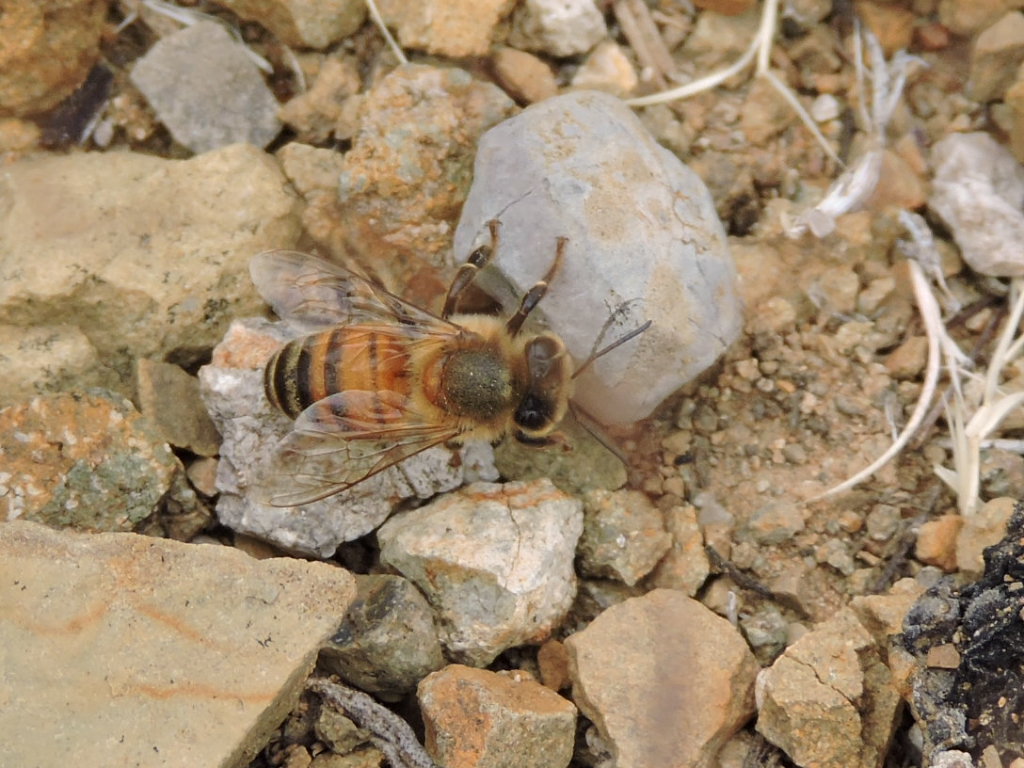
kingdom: Animalia
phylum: Arthropoda
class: Insecta
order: Hymenoptera
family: Apidae
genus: Apis
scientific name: Apis mellifera
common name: Honey bee
